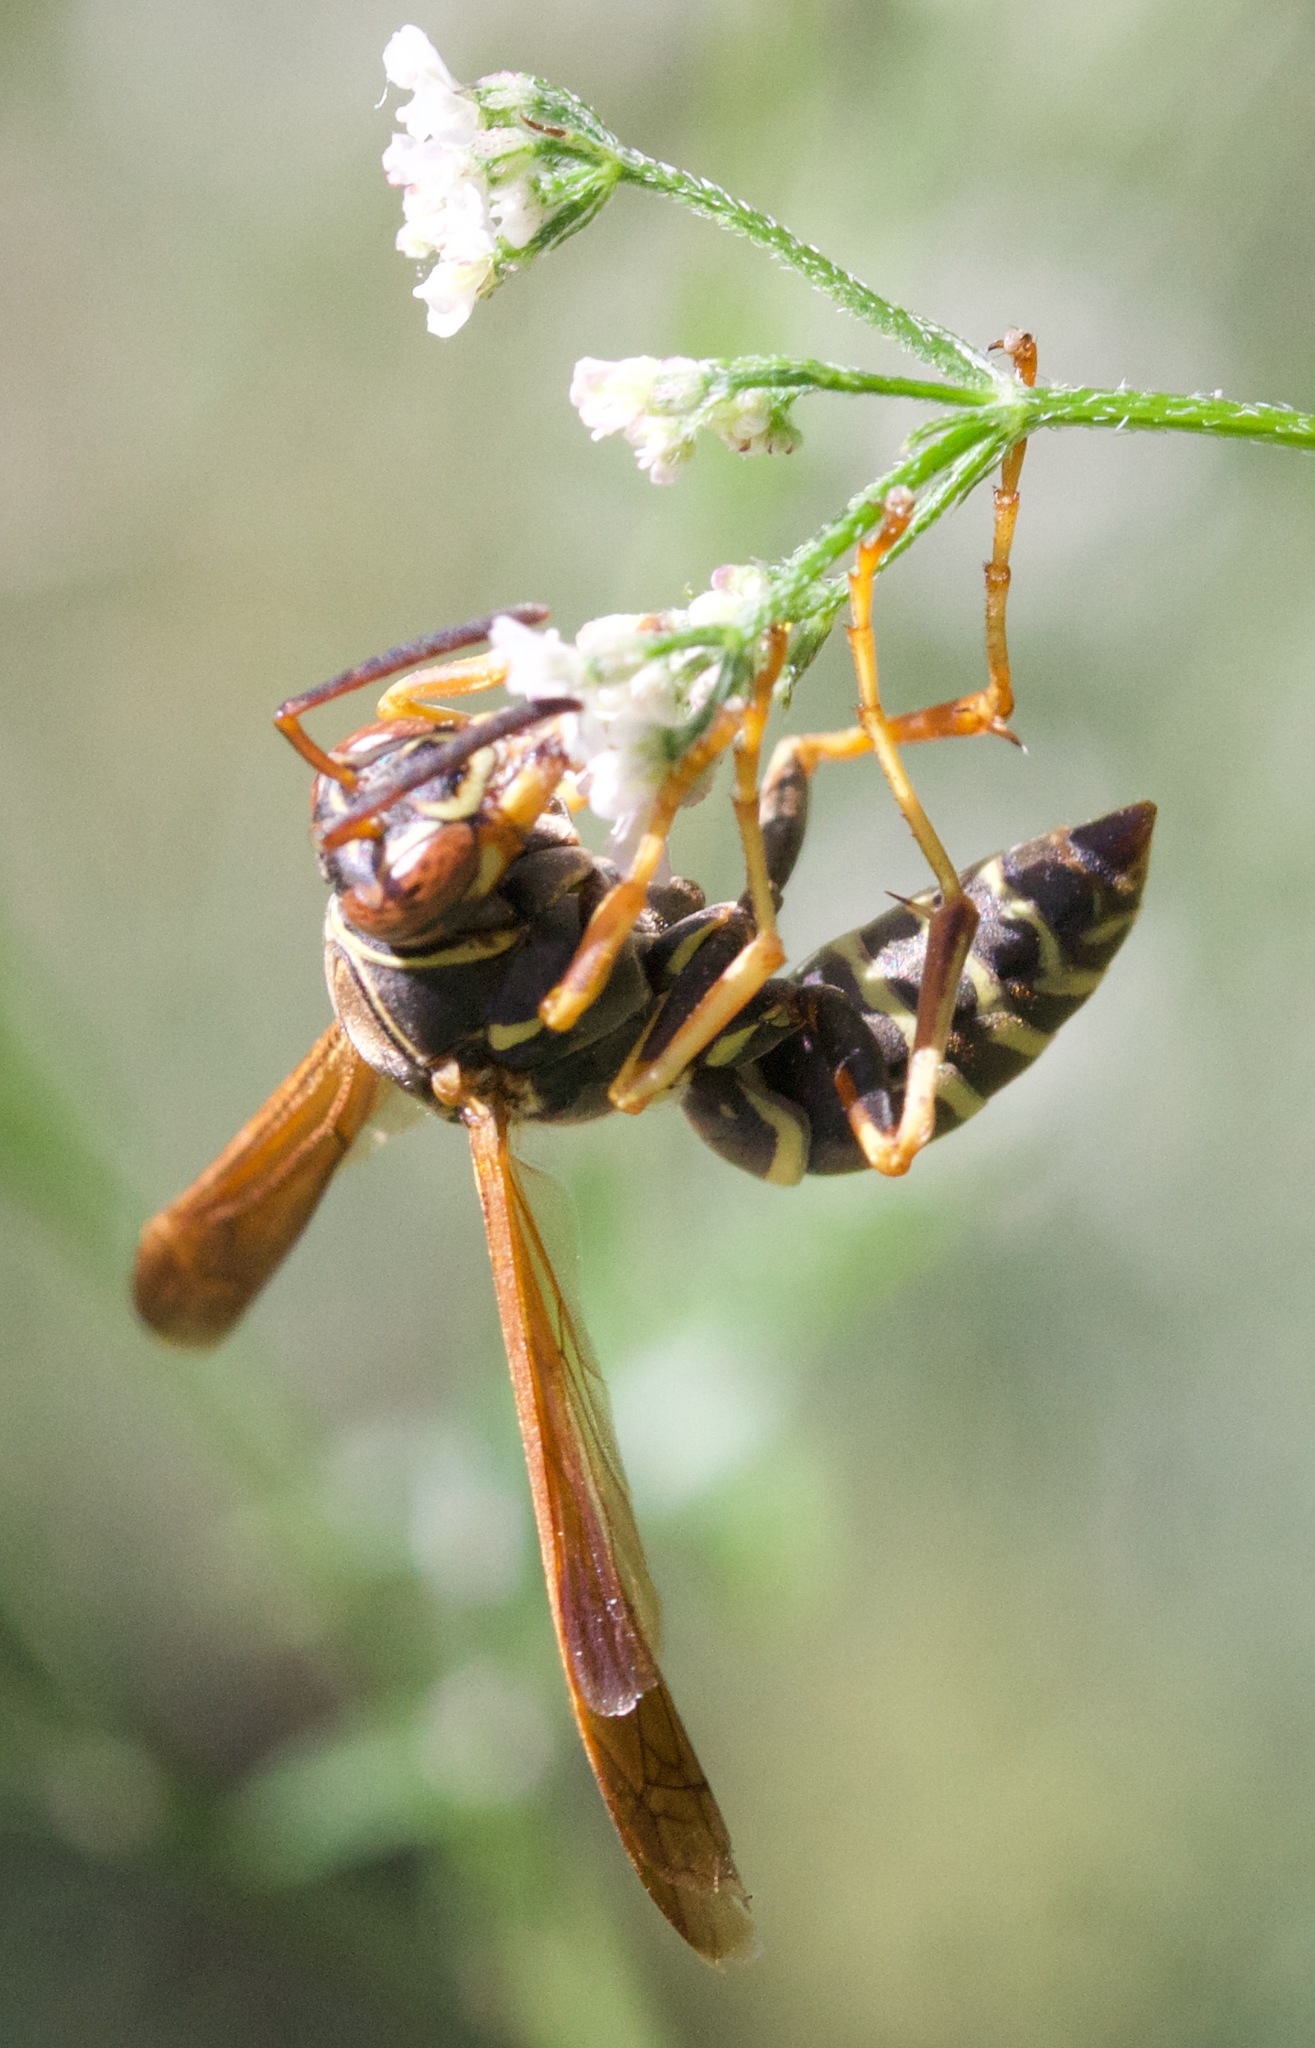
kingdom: Animalia
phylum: Arthropoda
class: Insecta
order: Hymenoptera
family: Eumenidae
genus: Polistes
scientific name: Polistes fuscatus
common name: Dark paper wasp
